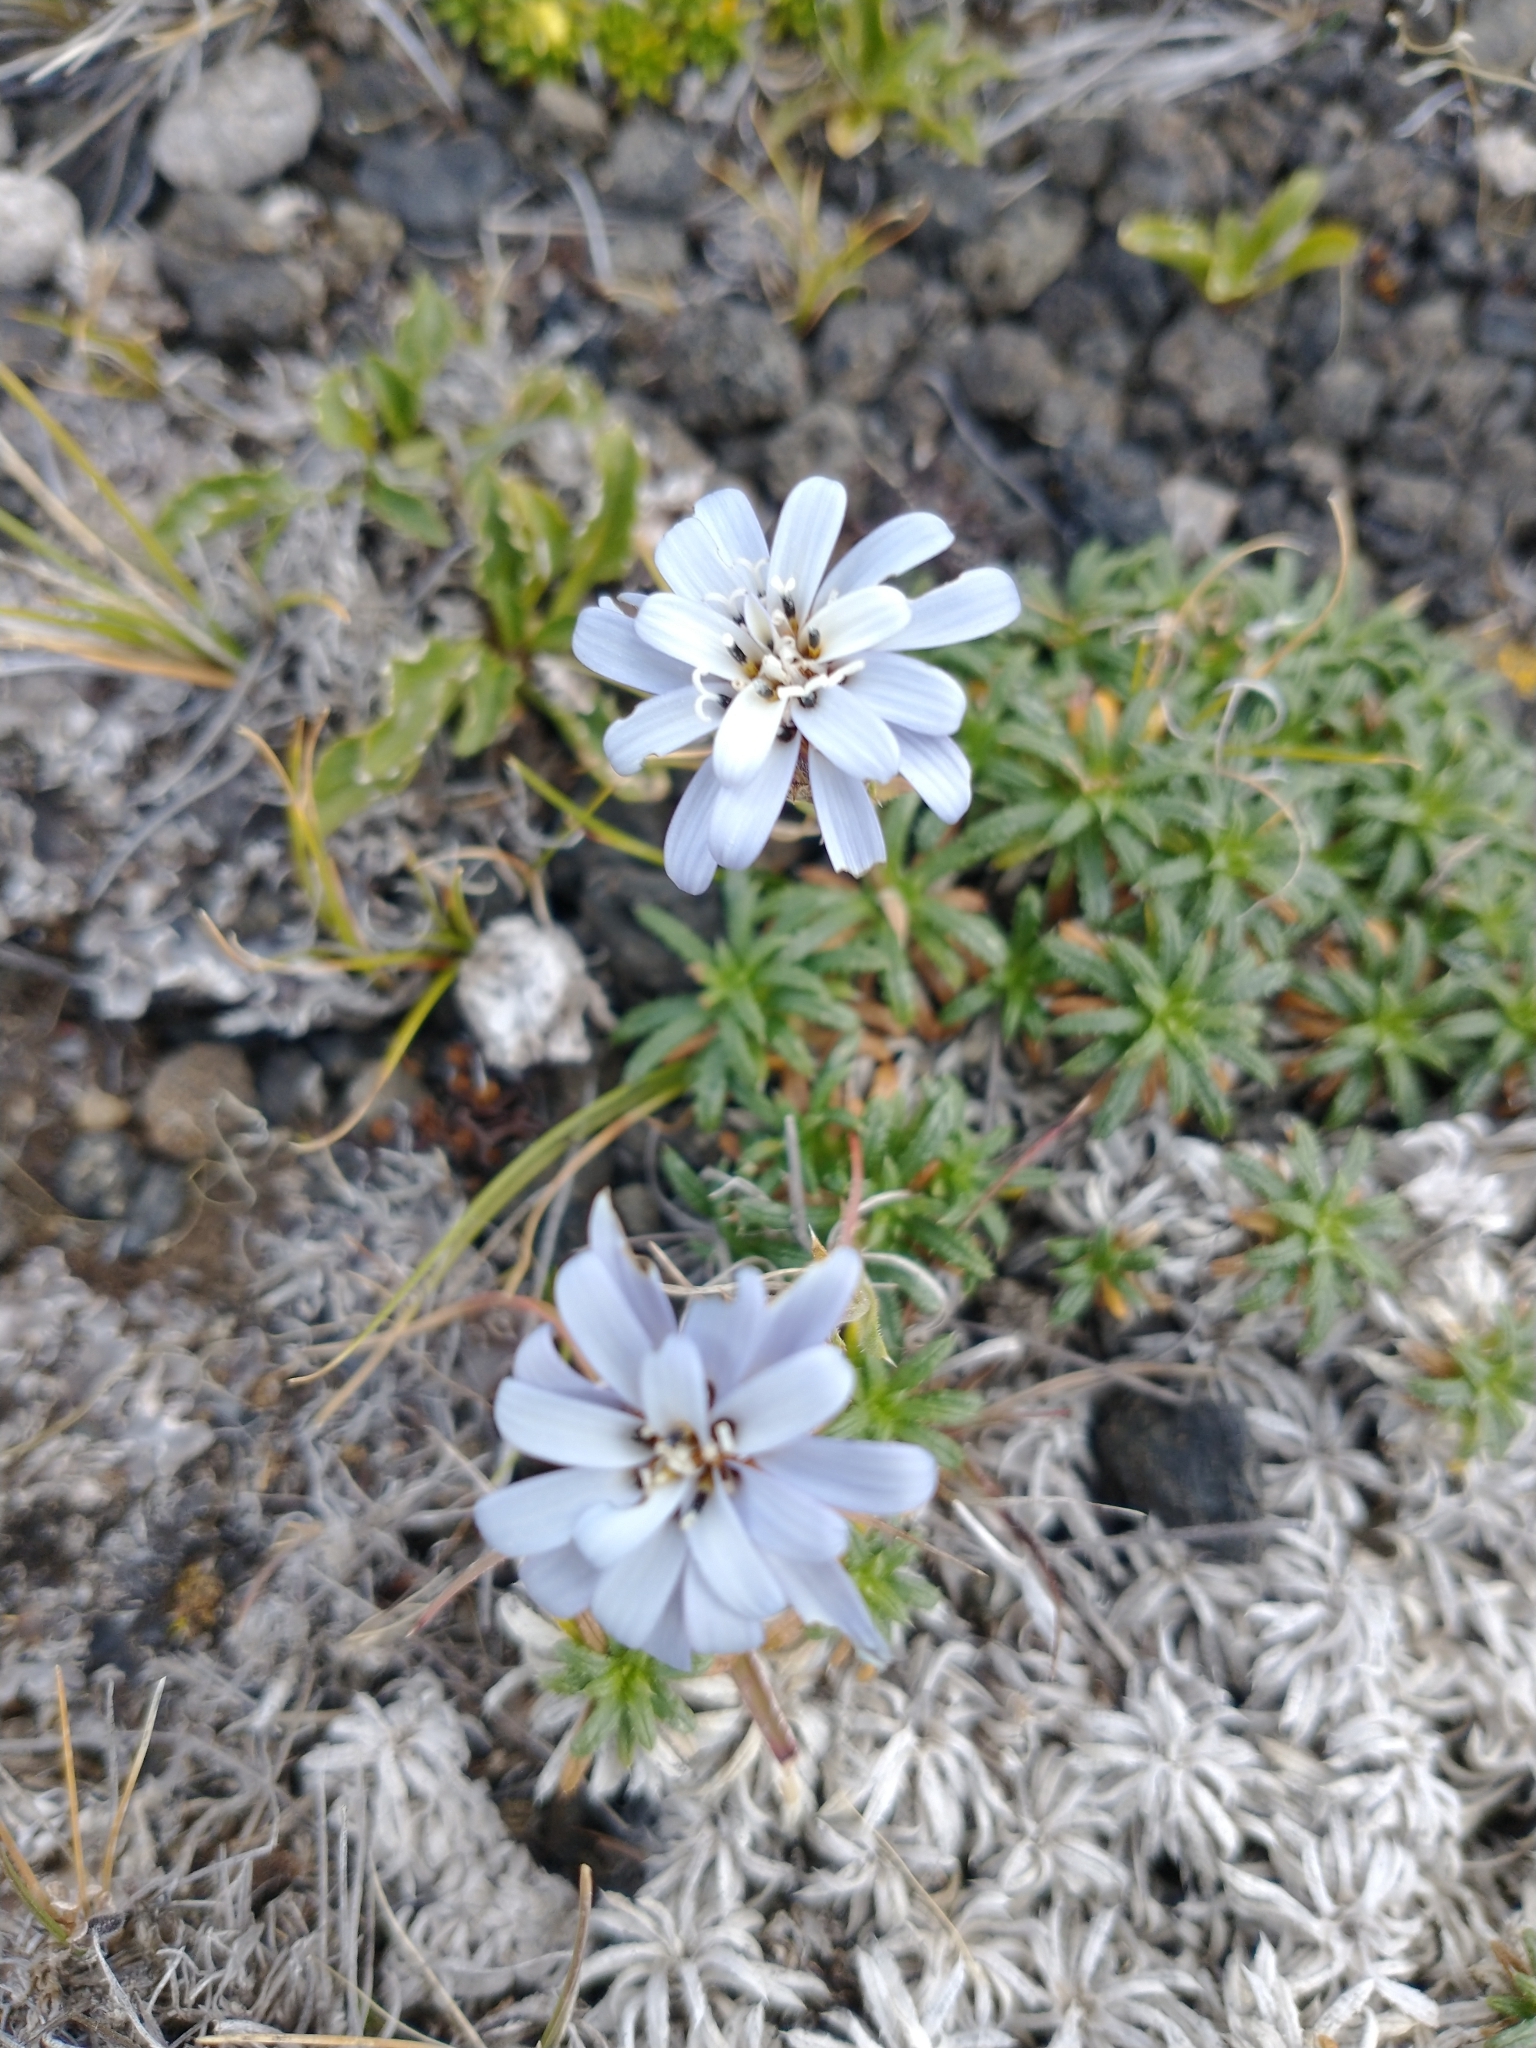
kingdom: Plantae
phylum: Tracheophyta
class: Magnoliopsida
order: Asterales
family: Asteraceae
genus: Perezia
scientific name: Perezia recurvata
